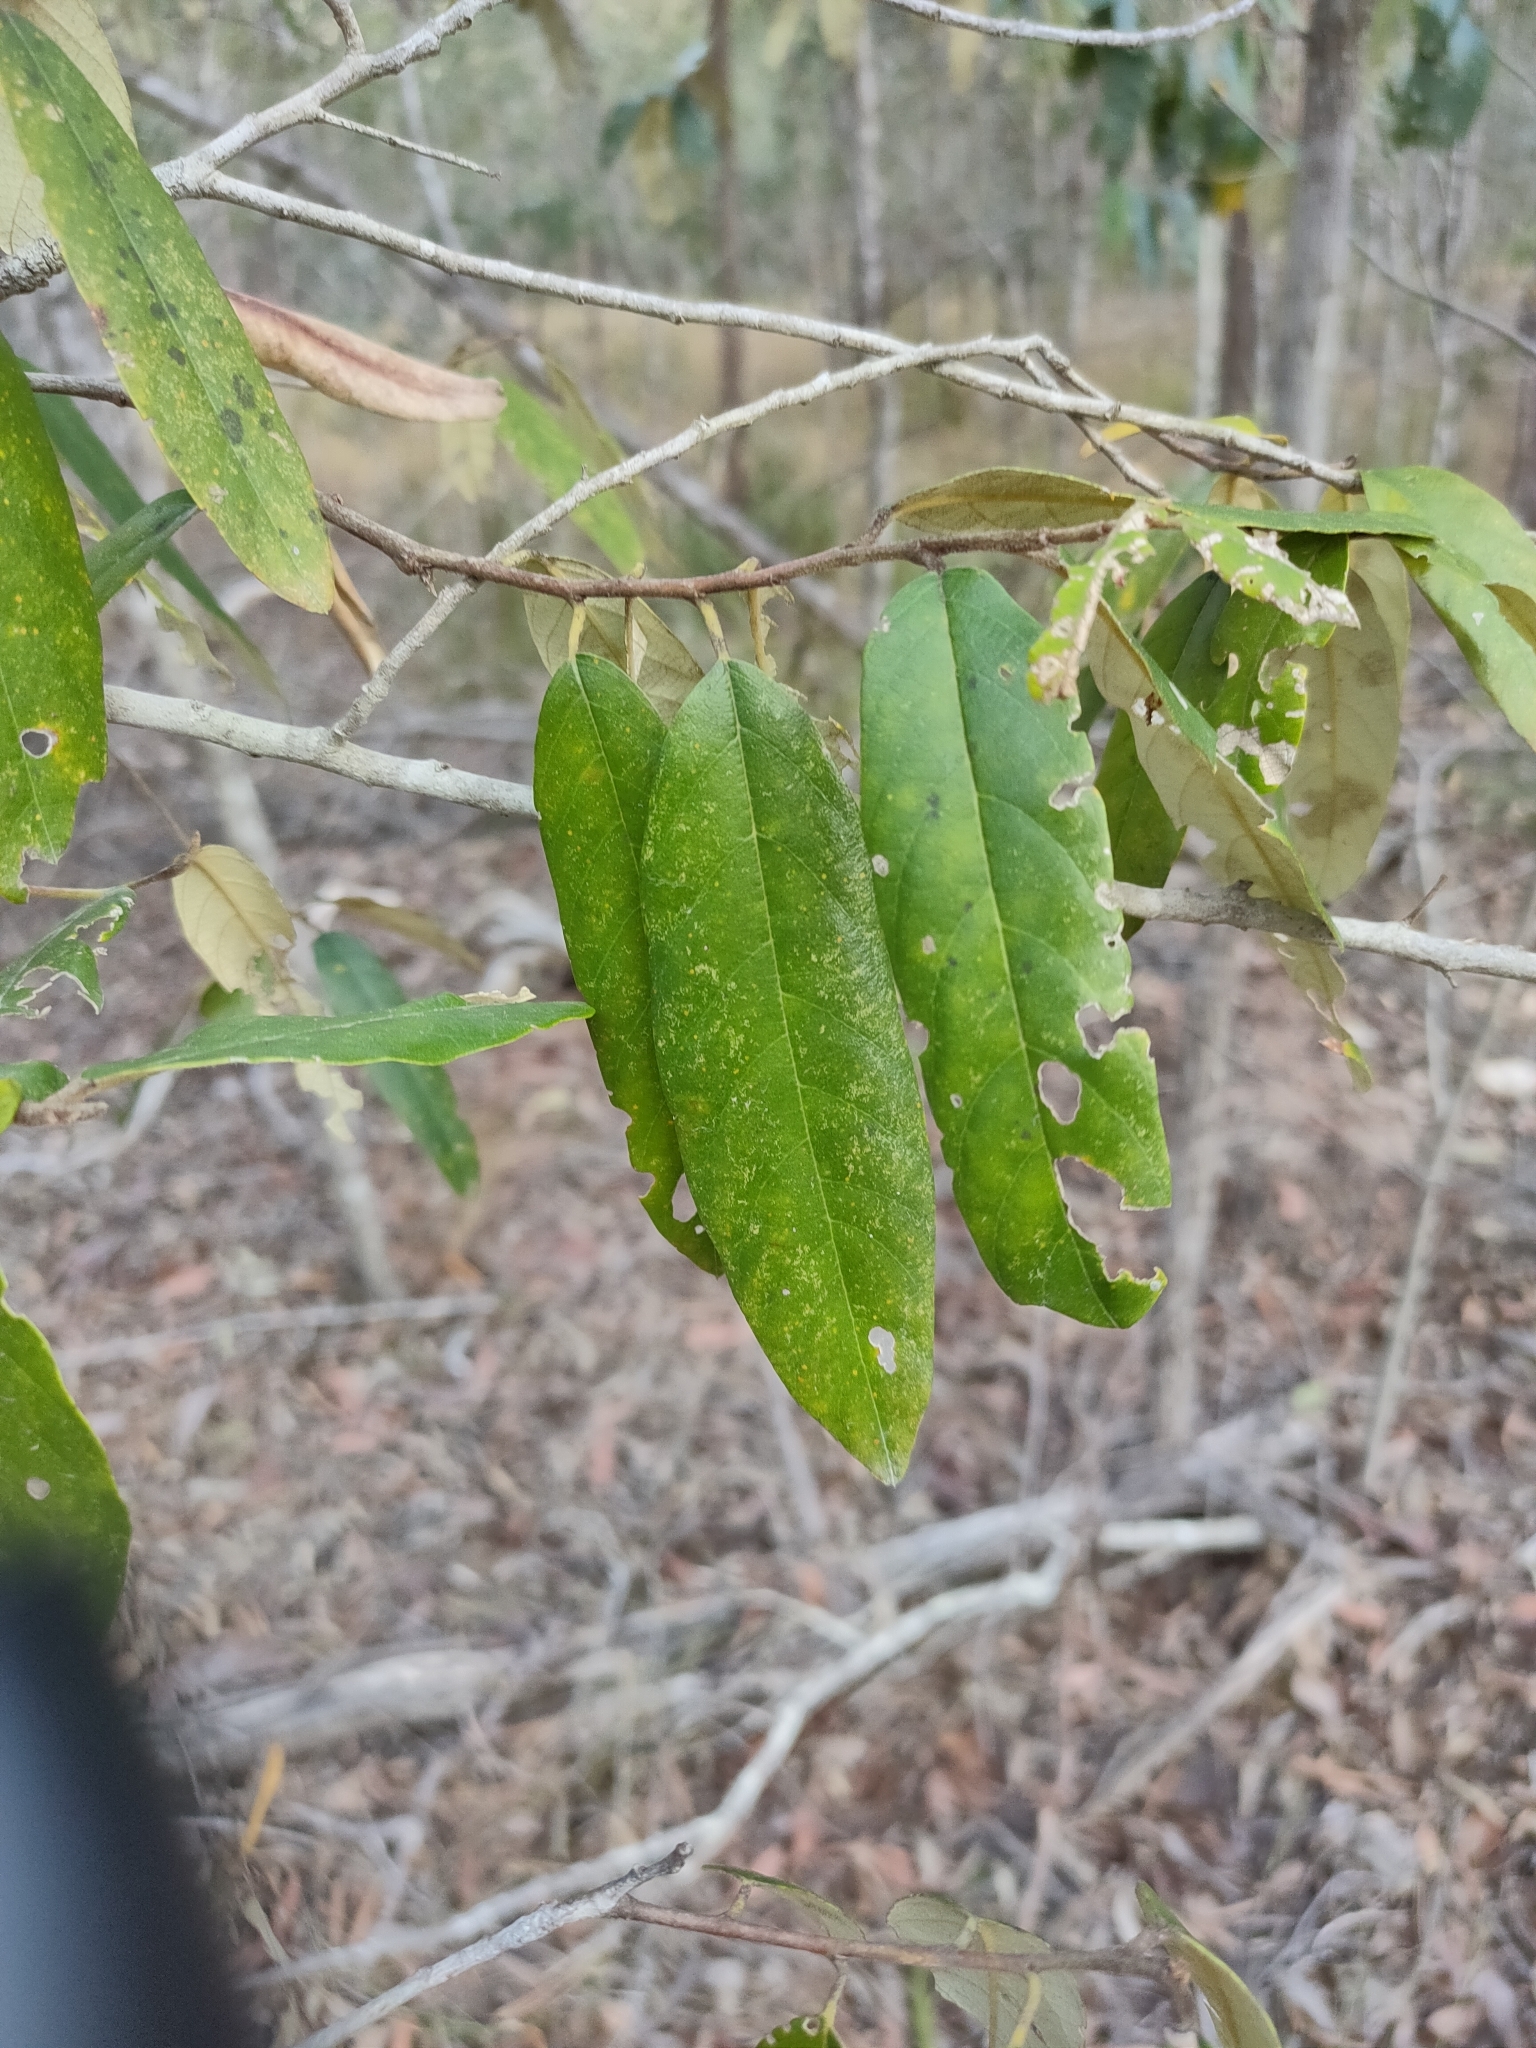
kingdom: Plantae
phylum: Tracheophyta
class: Magnoliopsida
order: Rosales
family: Rhamnaceae
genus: Alphitonia
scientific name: Alphitonia excelsa
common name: Red ash
